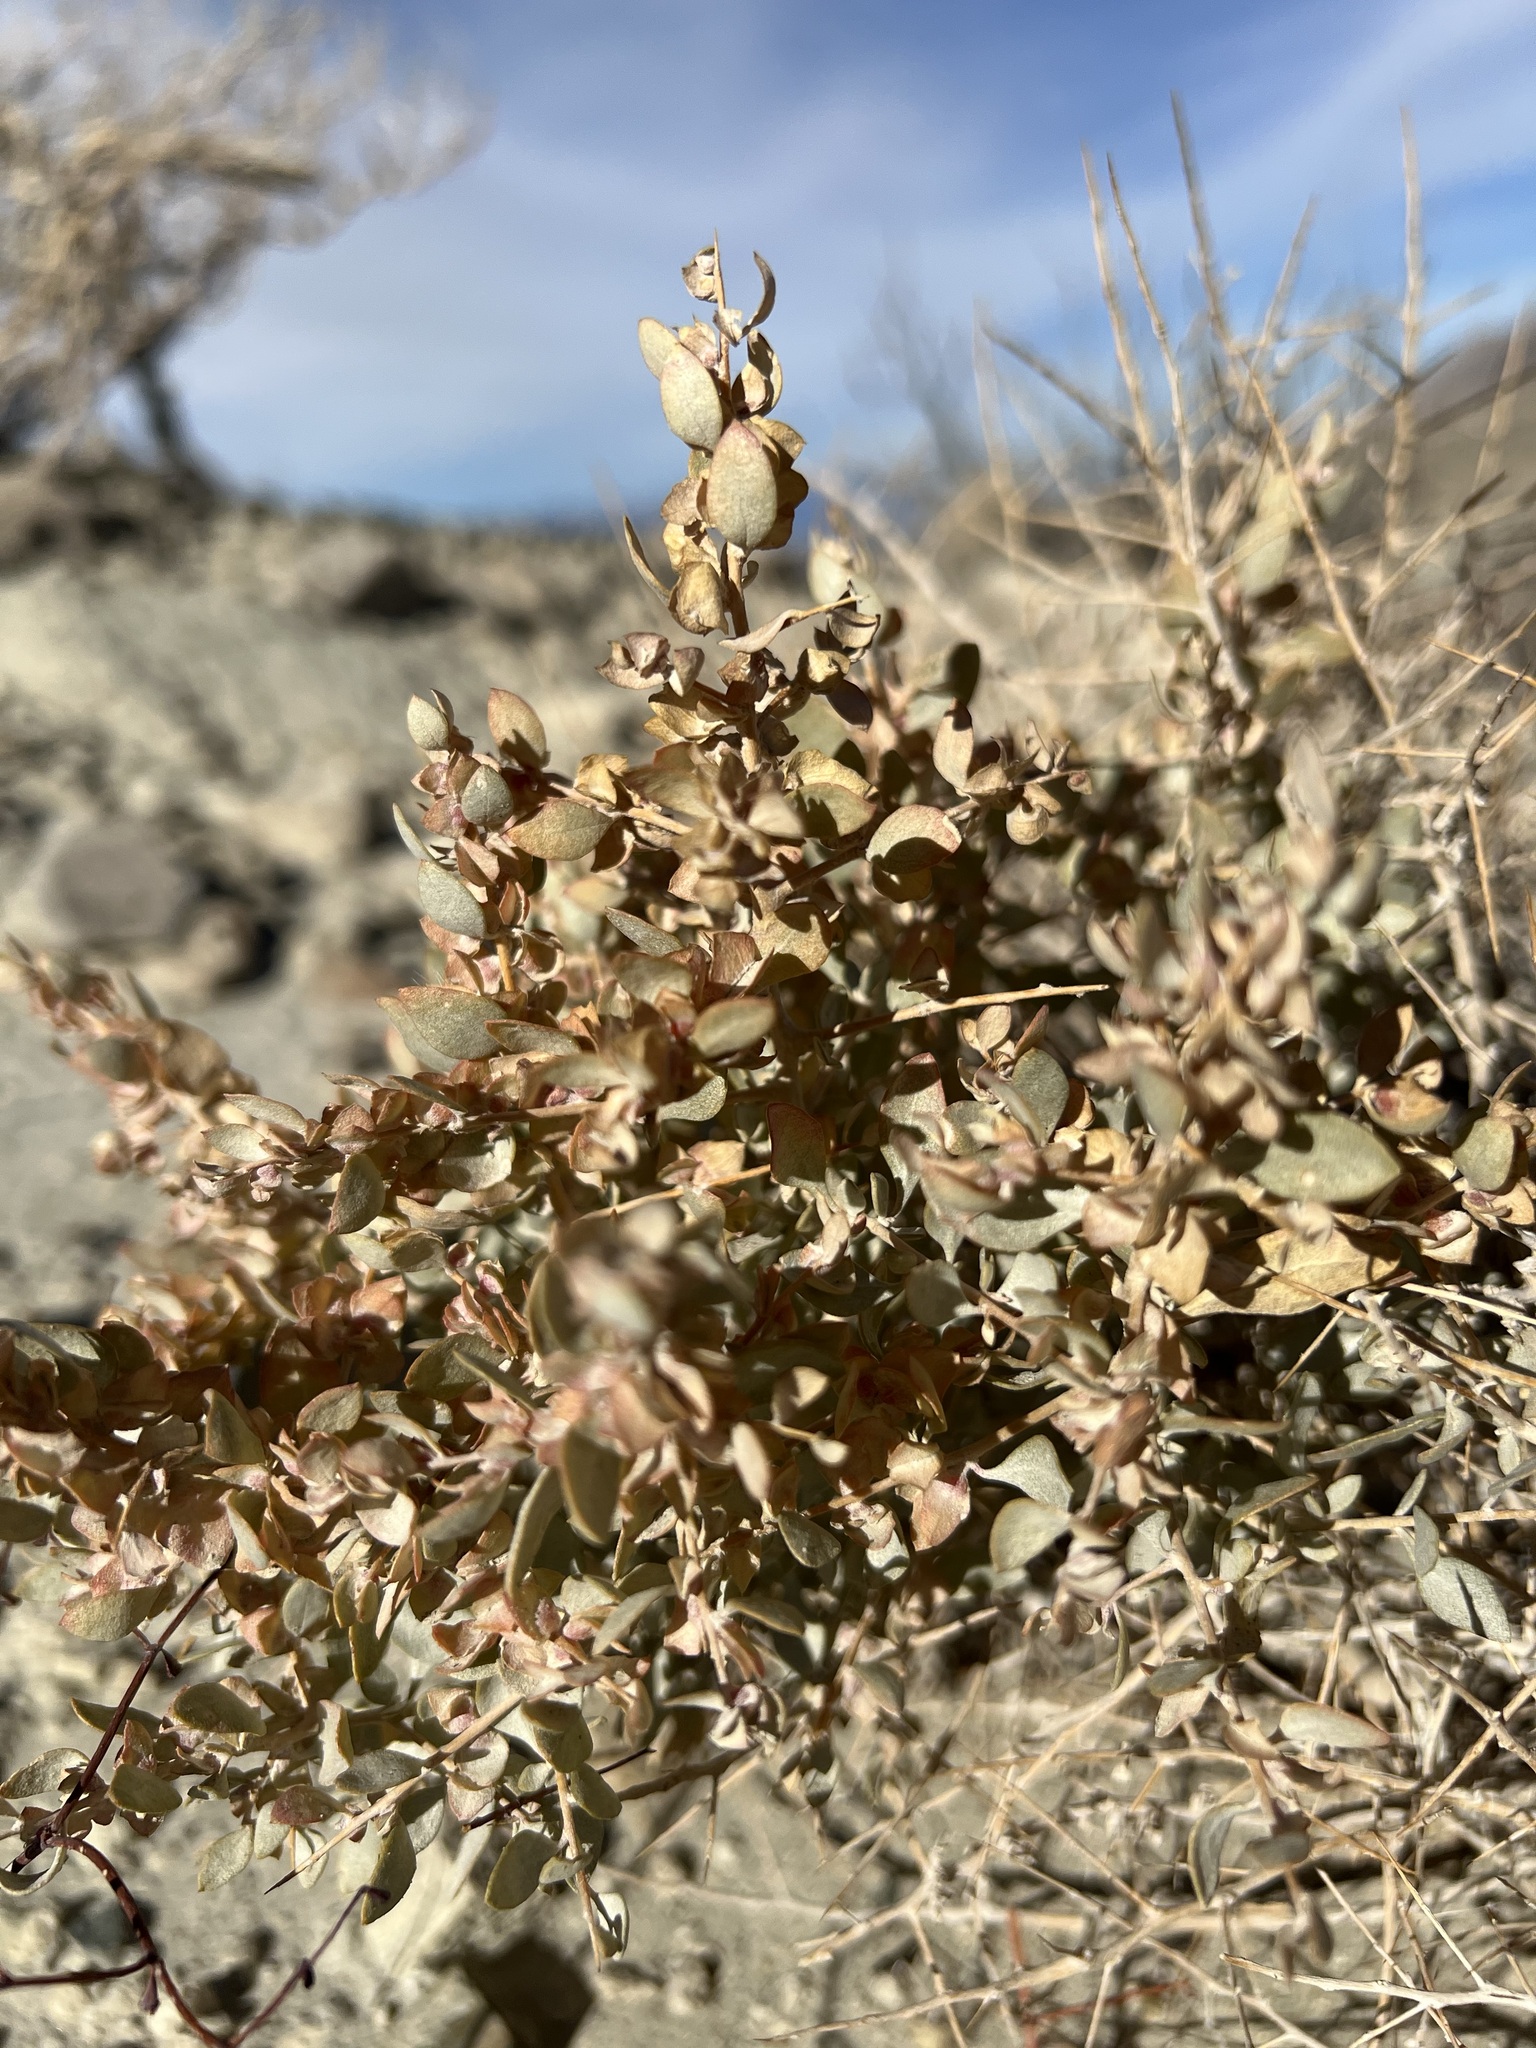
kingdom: Plantae
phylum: Tracheophyta
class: Magnoliopsida
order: Caryophyllales
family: Amaranthaceae
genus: Atriplex
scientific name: Atriplex confertifolia
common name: Shadscale
